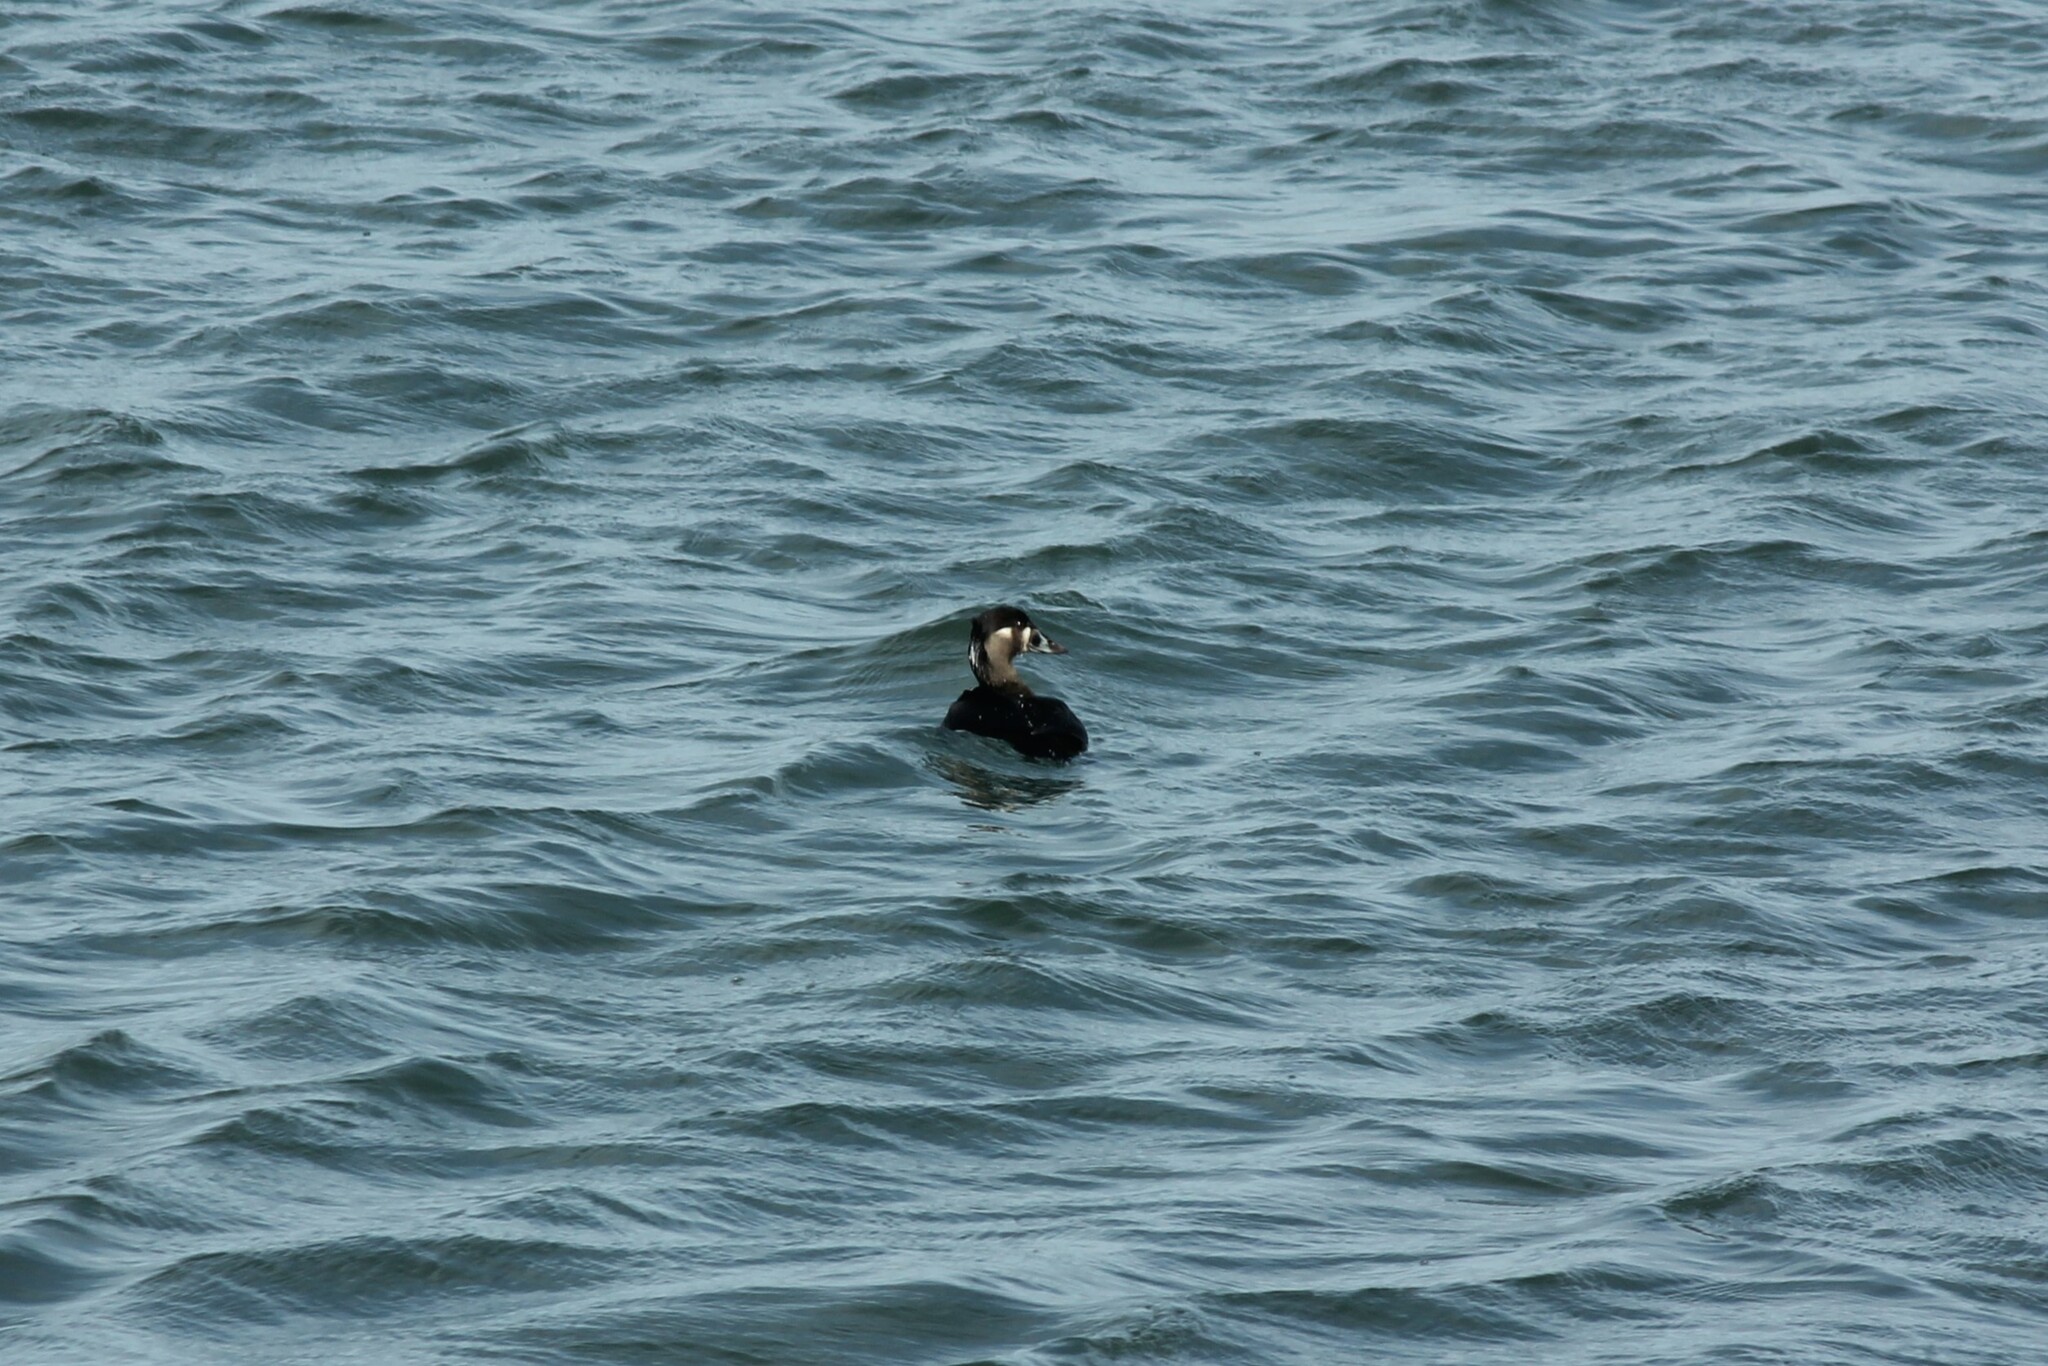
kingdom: Animalia
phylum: Chordata
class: Aves
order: Anseriformes
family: Anatidae
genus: Melanitta
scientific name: Melanitta perspicillata
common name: Surf scoter
